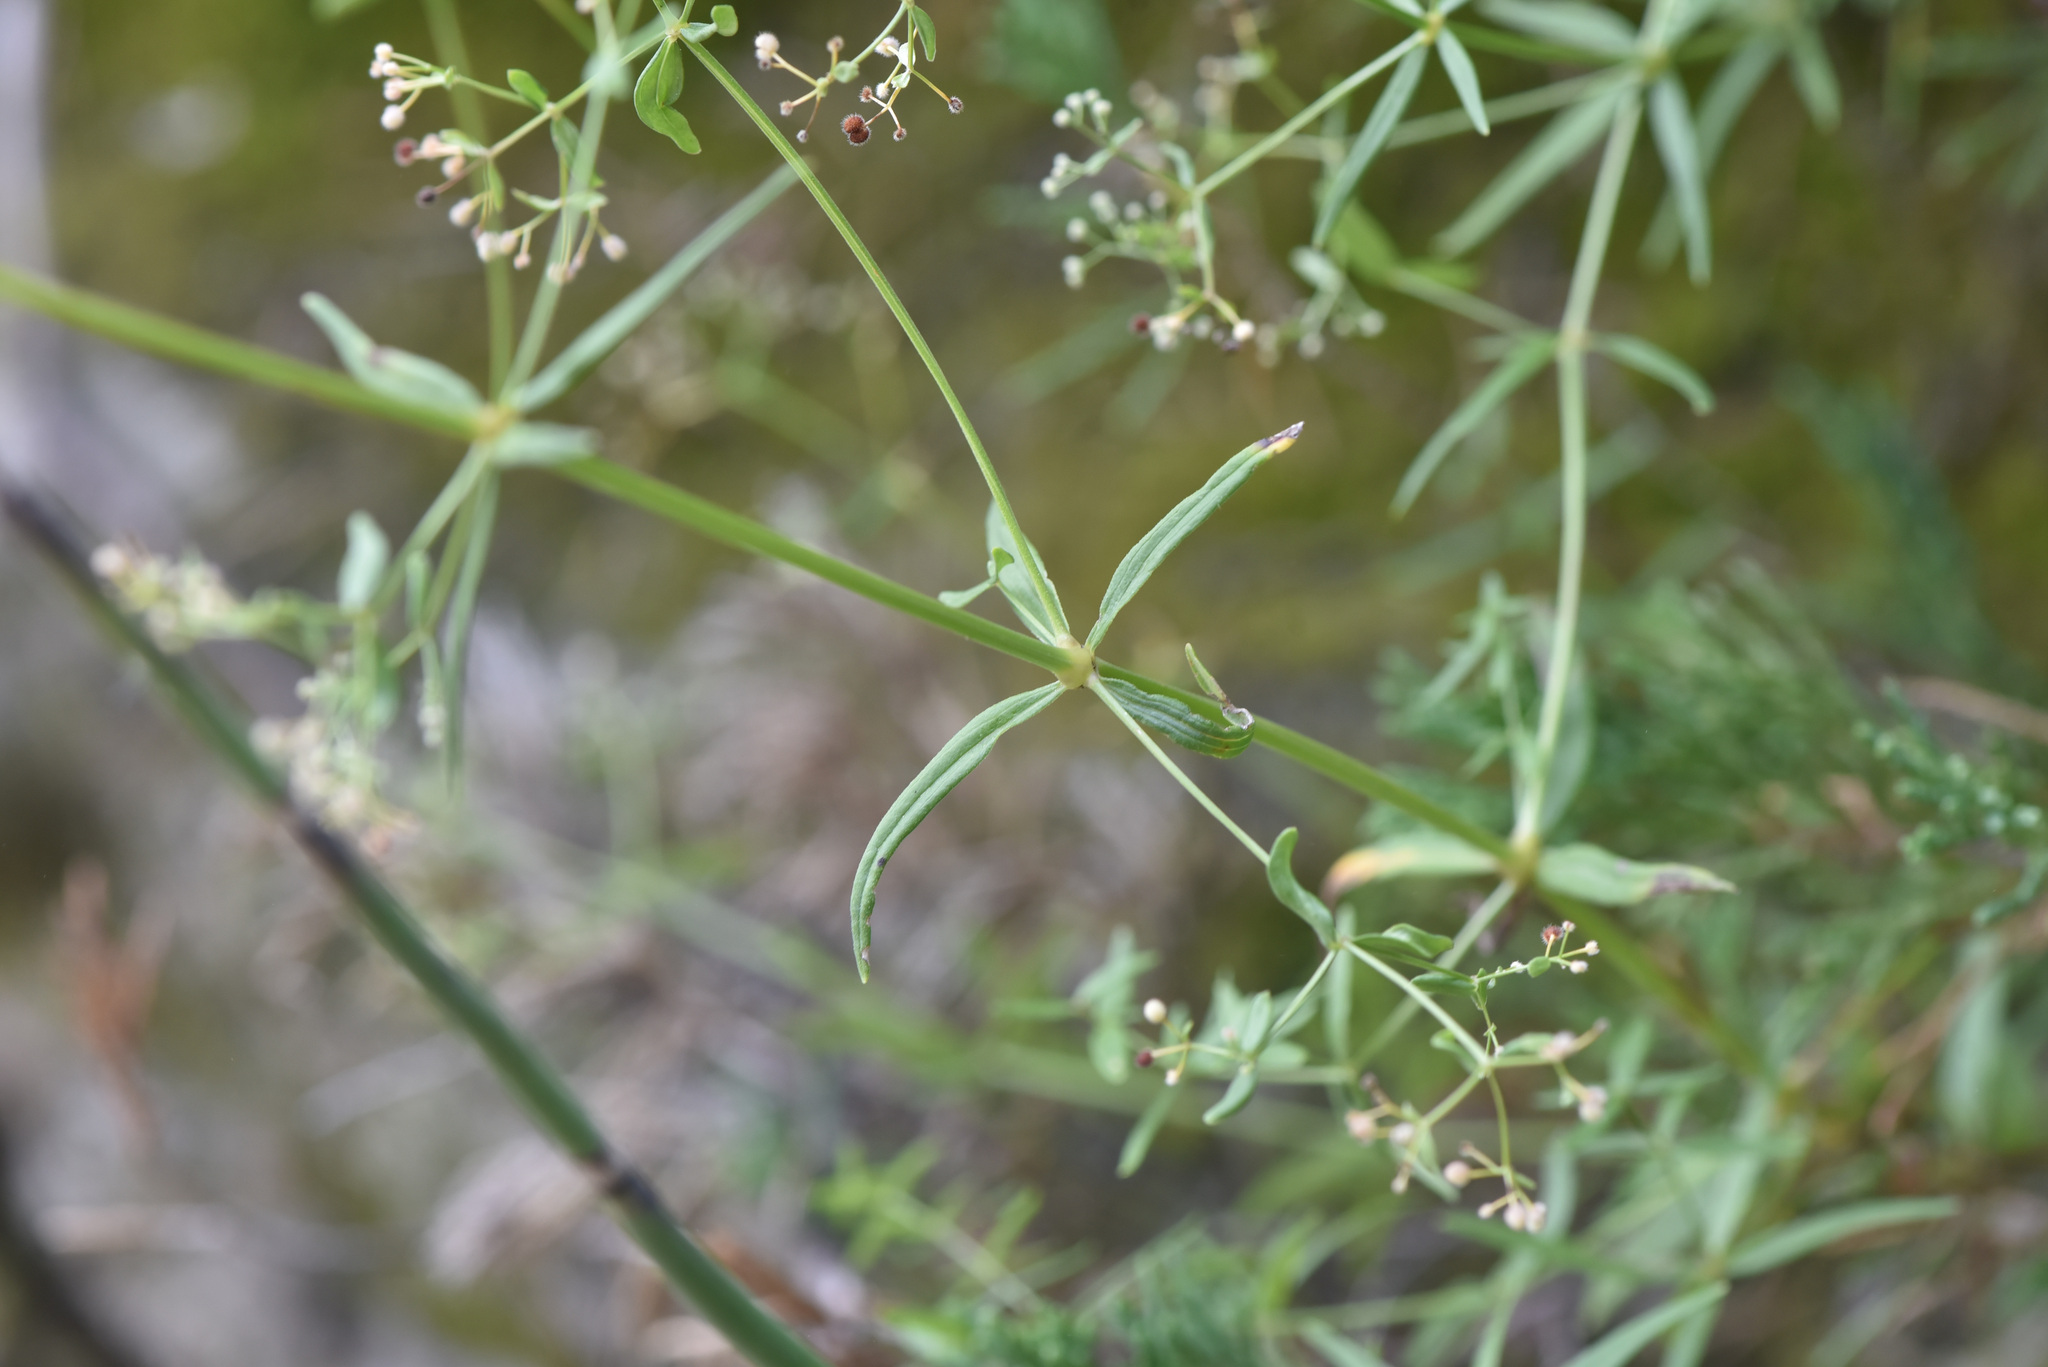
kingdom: Plantae
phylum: Tracheophyta
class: Magnoliopsida
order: Gentianales
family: Rubiaceae
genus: Galium
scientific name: Galium boreale
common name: Northern bedstraw
